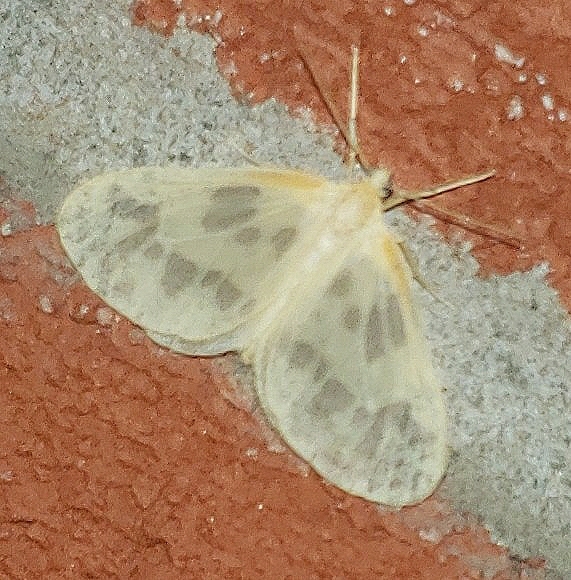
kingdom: Animalia
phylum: Arthropoda
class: Insecta
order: Lepidoptera
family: Geometridae
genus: Eubaphe
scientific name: Eubaphe mendica
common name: Beggar
